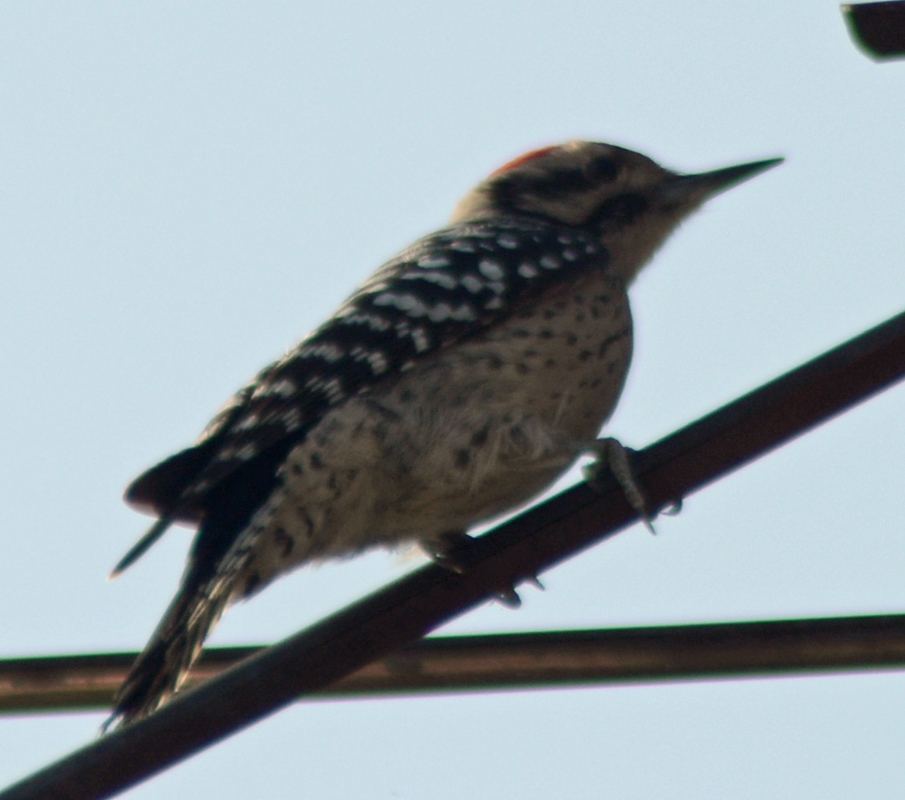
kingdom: Animalia
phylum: Chordata
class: Aves
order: Piciformes
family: Picidae
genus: Dryobates
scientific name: Dryobates scalaris
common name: Ladder-backed woodpecker
